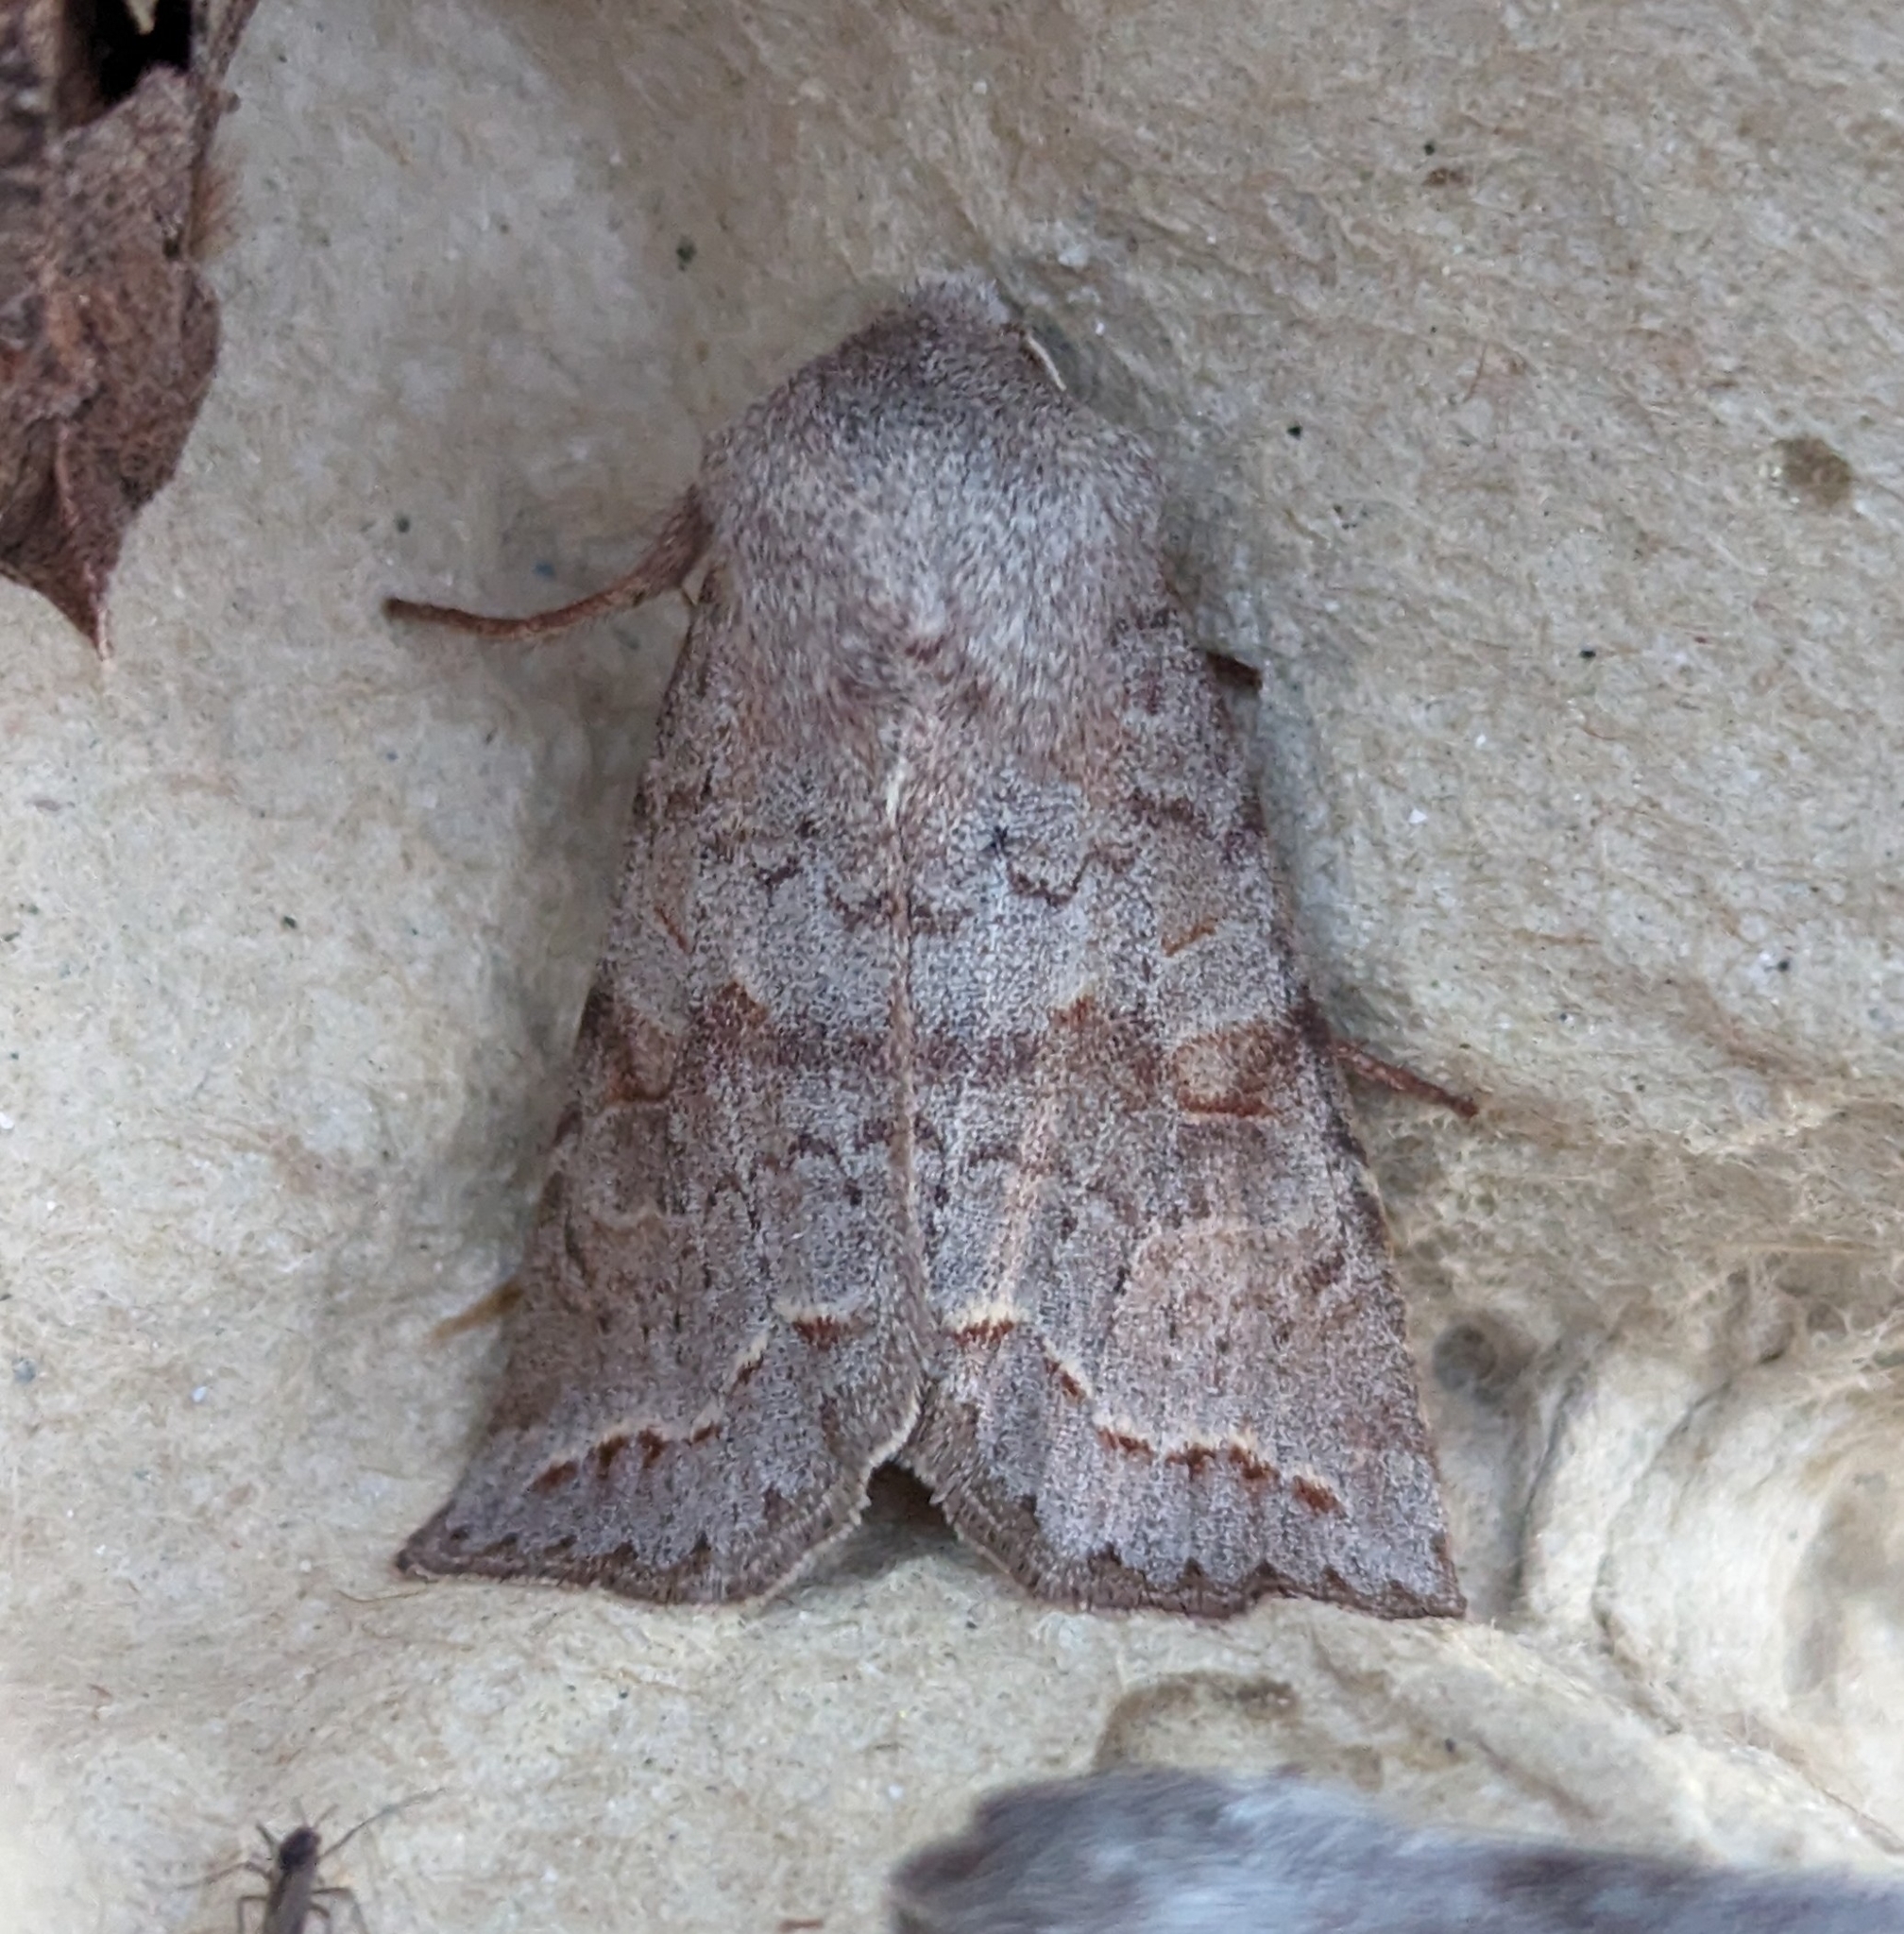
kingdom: Animalia
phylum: Arthropoda
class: Insecta
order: Lepidoptera
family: Noctuidae
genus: Orthosia
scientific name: Orthosia revicta
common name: Rusty whitesided caterpillar
